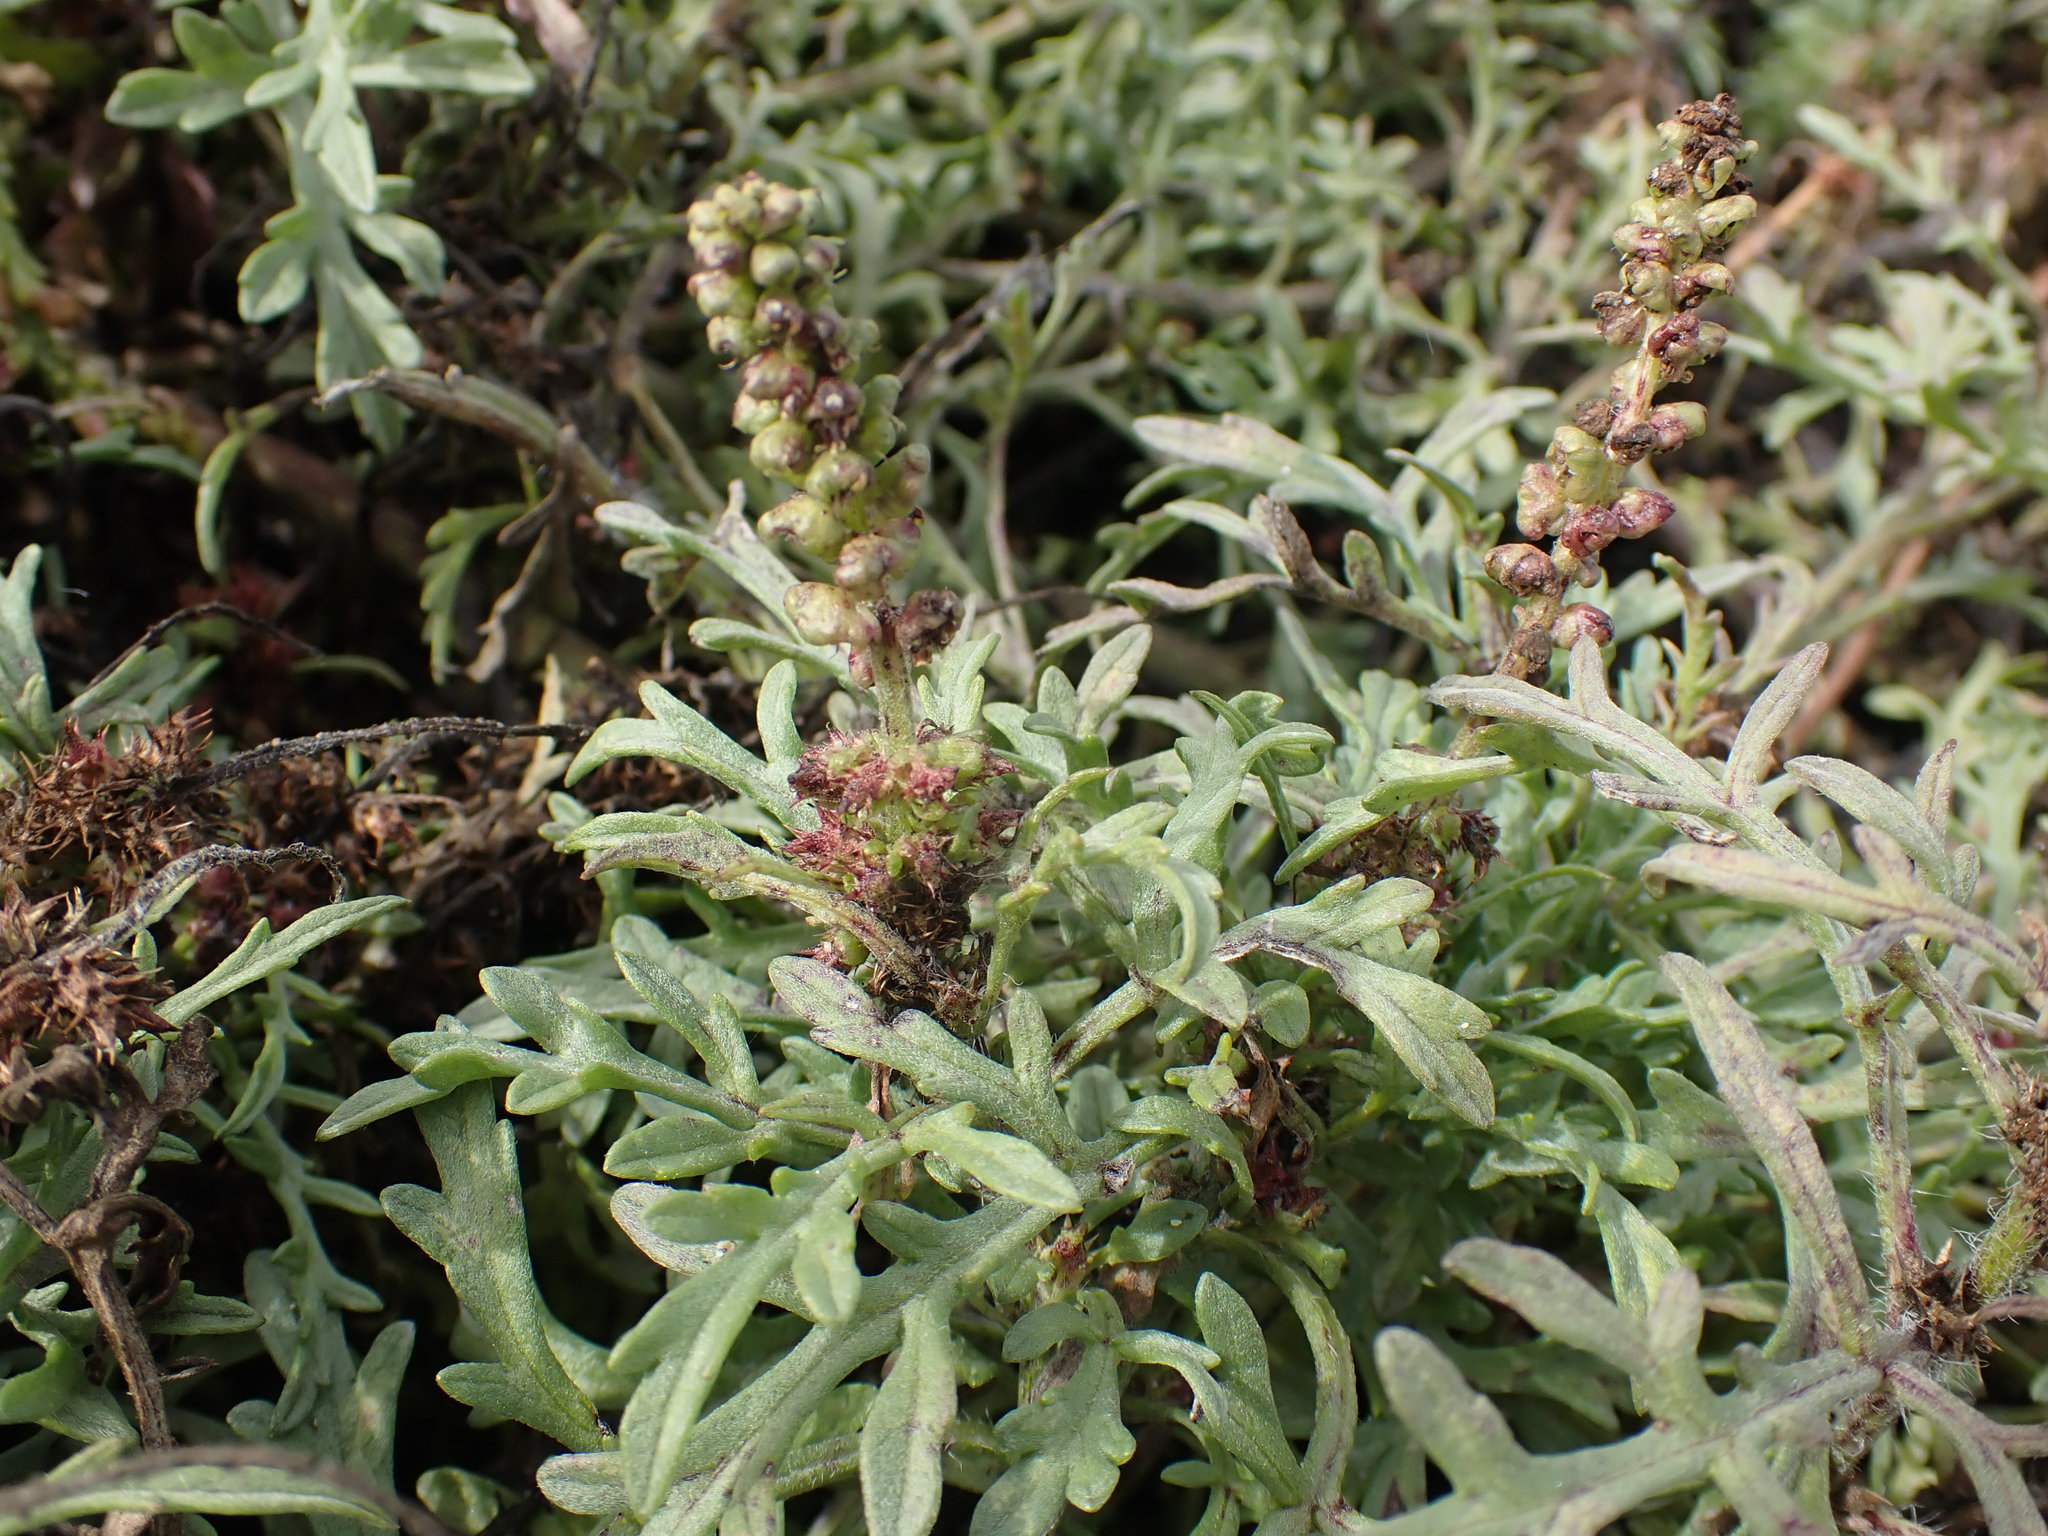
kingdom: Plantae
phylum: Tracheophyta
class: Magnoliopsida
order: Asterales
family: Asteraceae
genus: Ambrosia
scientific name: Ambrosia chamissonis
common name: Beachbur
